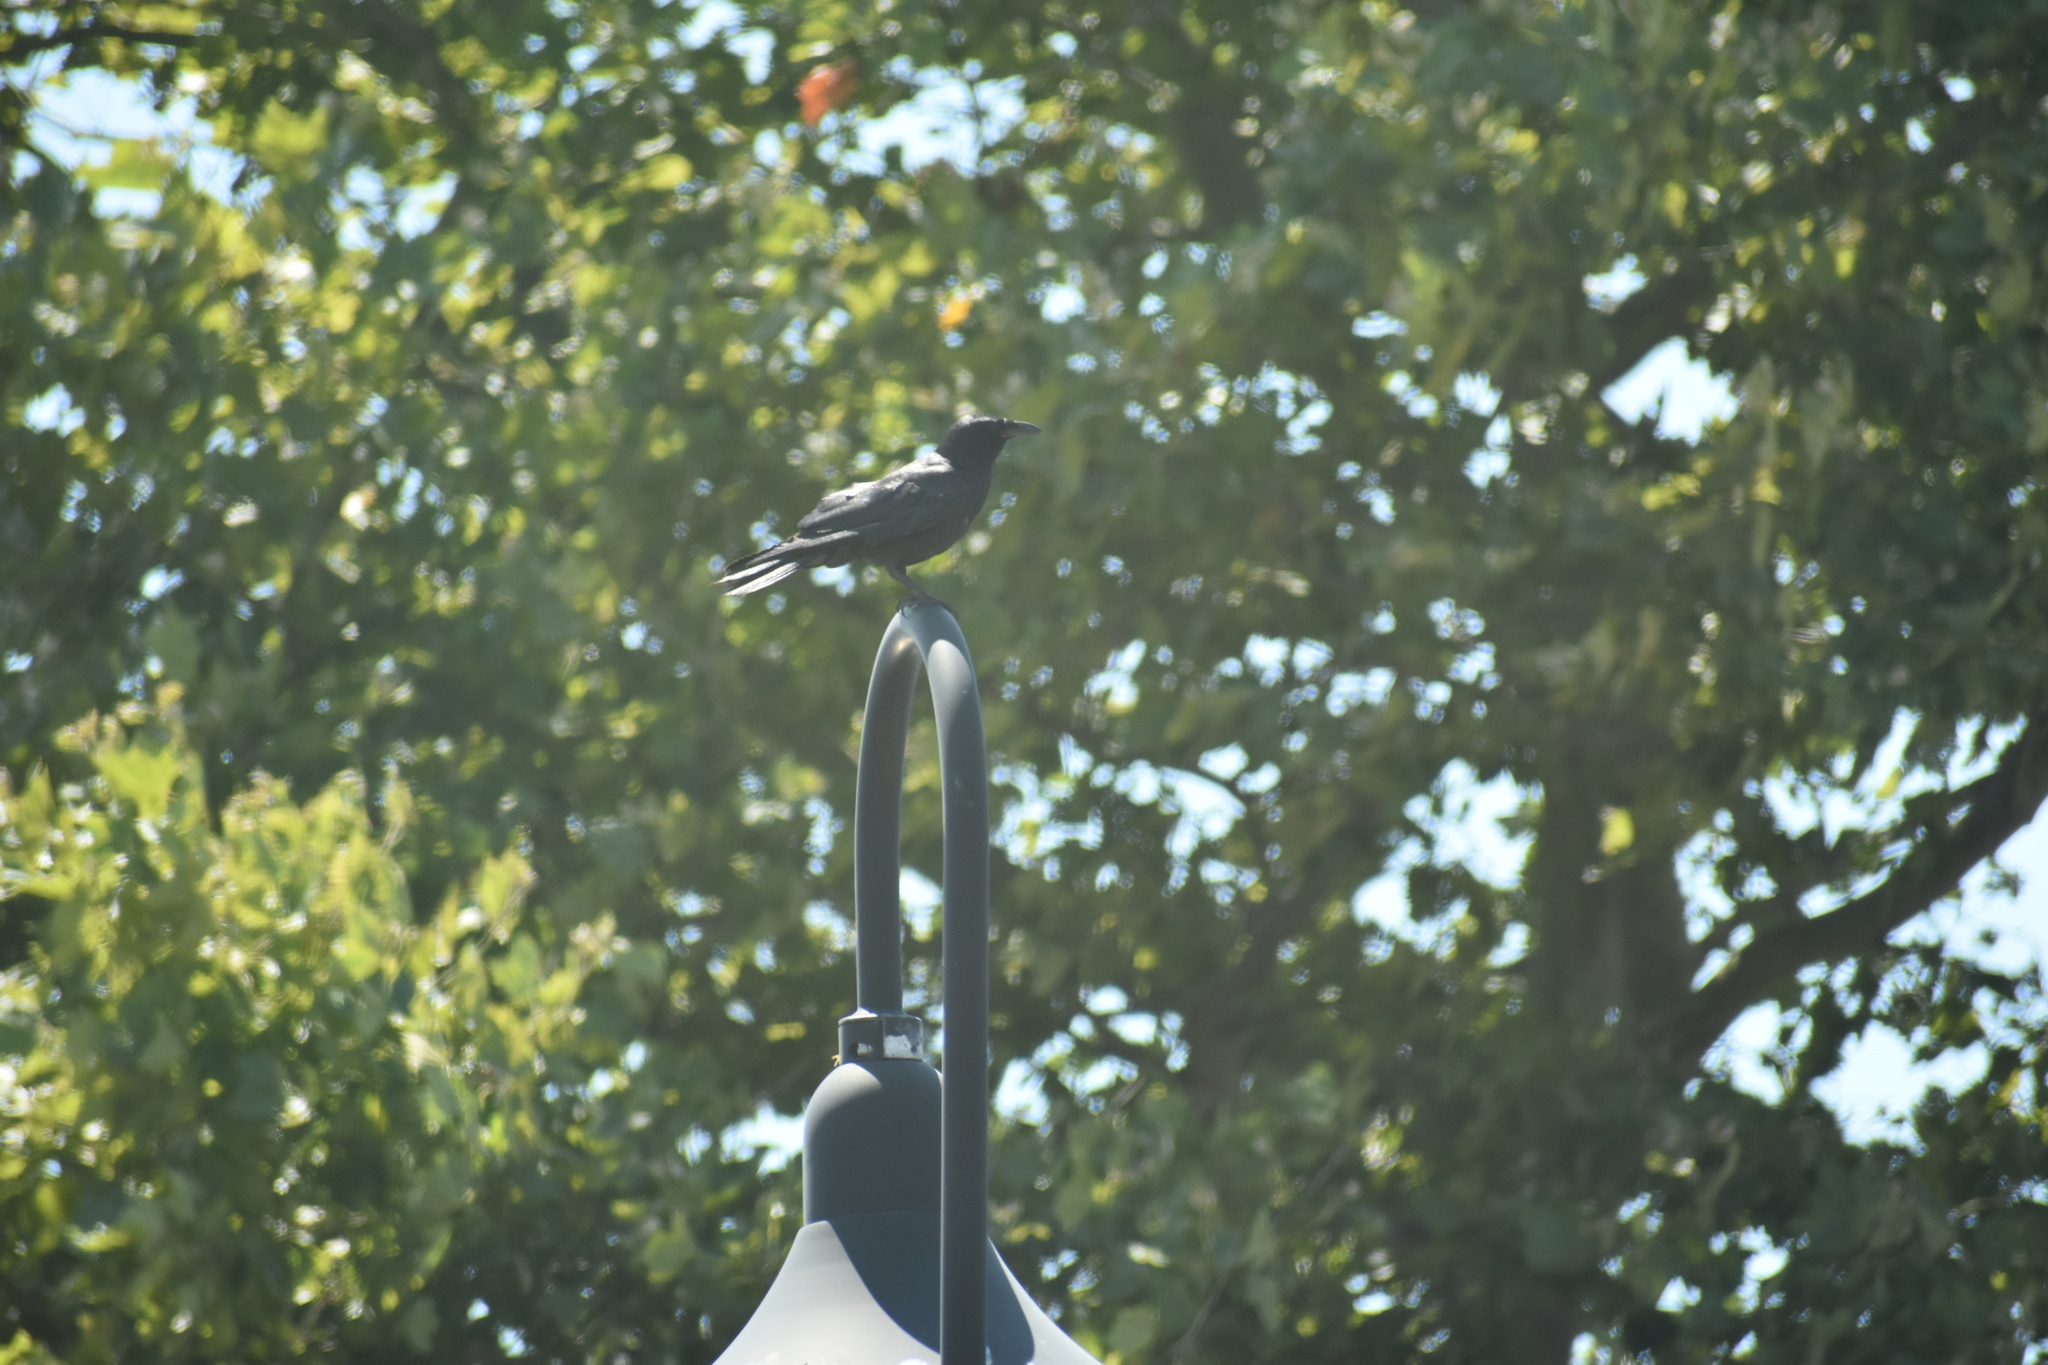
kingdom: Animalia
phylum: Chordata
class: Aves
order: Passeriformes
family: Corvidae
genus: Corvus
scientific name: Corvus
